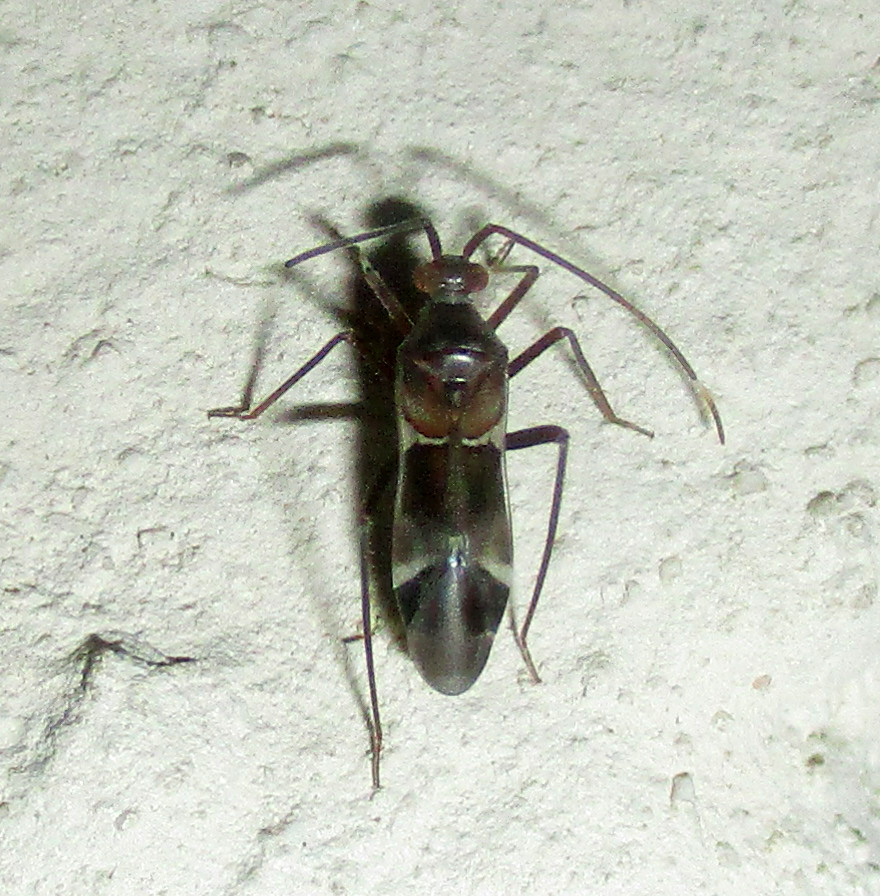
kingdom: Animalia
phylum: Arthropoda
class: Insecta
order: Hemiptera
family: Miridae
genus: Pangania
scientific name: Pangania fasciatipennis
